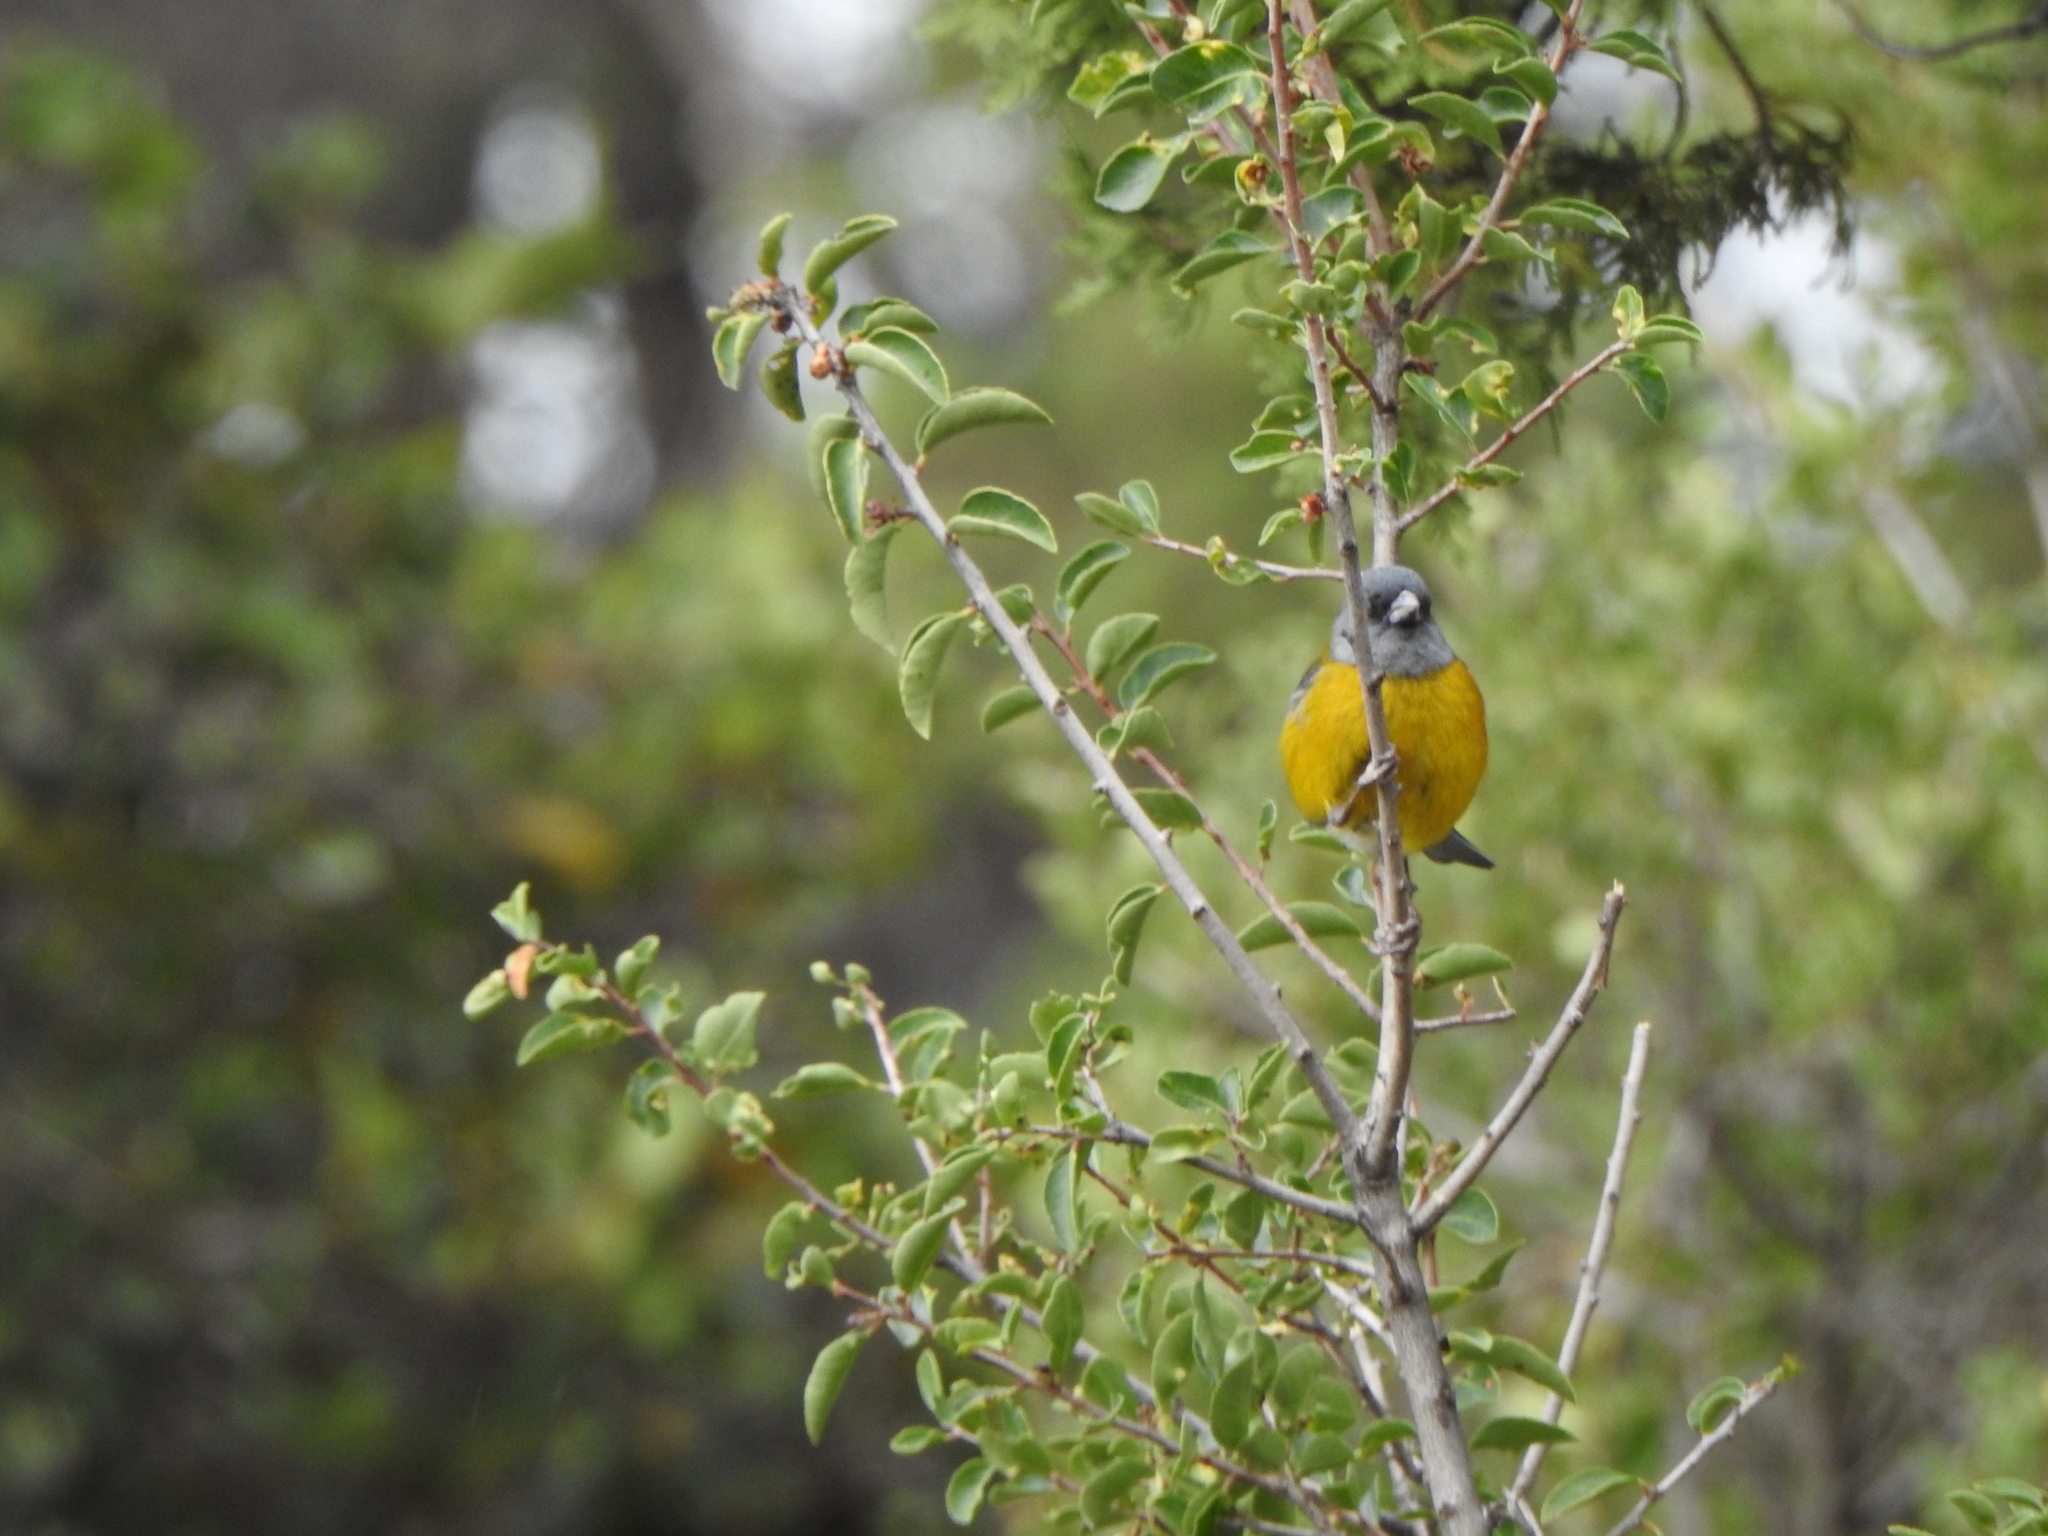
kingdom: Animalia
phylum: Chordata
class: Aves
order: Passeriformes
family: Thraupidae
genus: Phrygilus
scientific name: Phrygilus patagonicus
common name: Patagonian sierra finch
